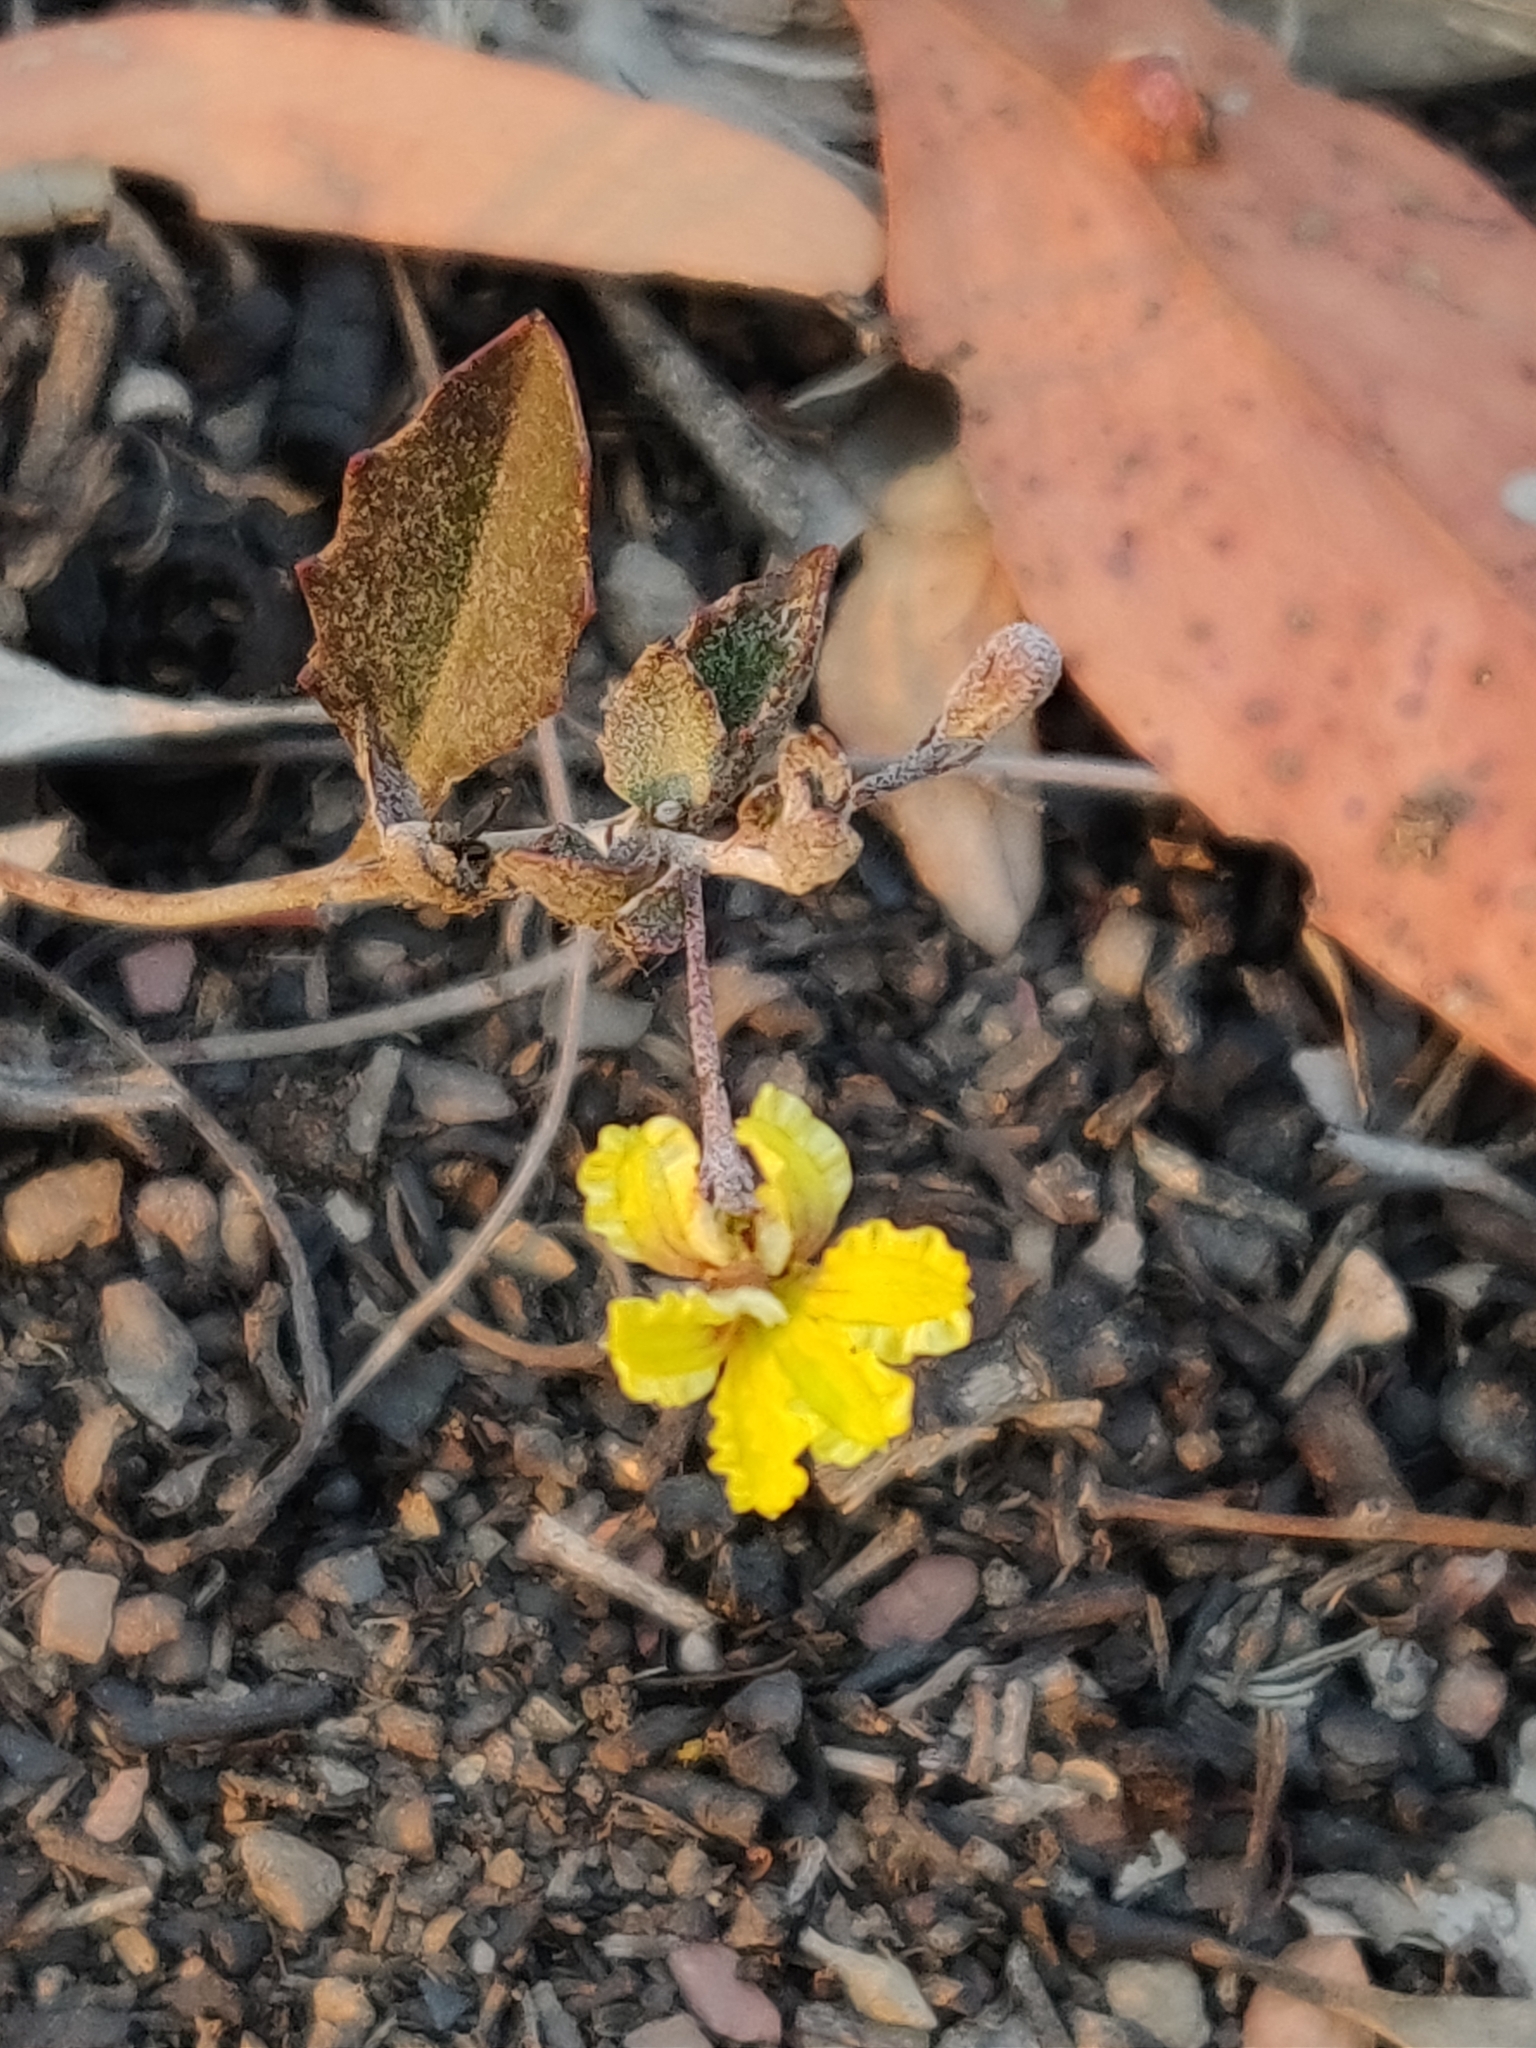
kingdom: Plantae
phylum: Tracheophyta
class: Magnoliopsida
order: Asterales
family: Goodeniaceae
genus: Goodenia
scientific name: Goodenia hederacea
